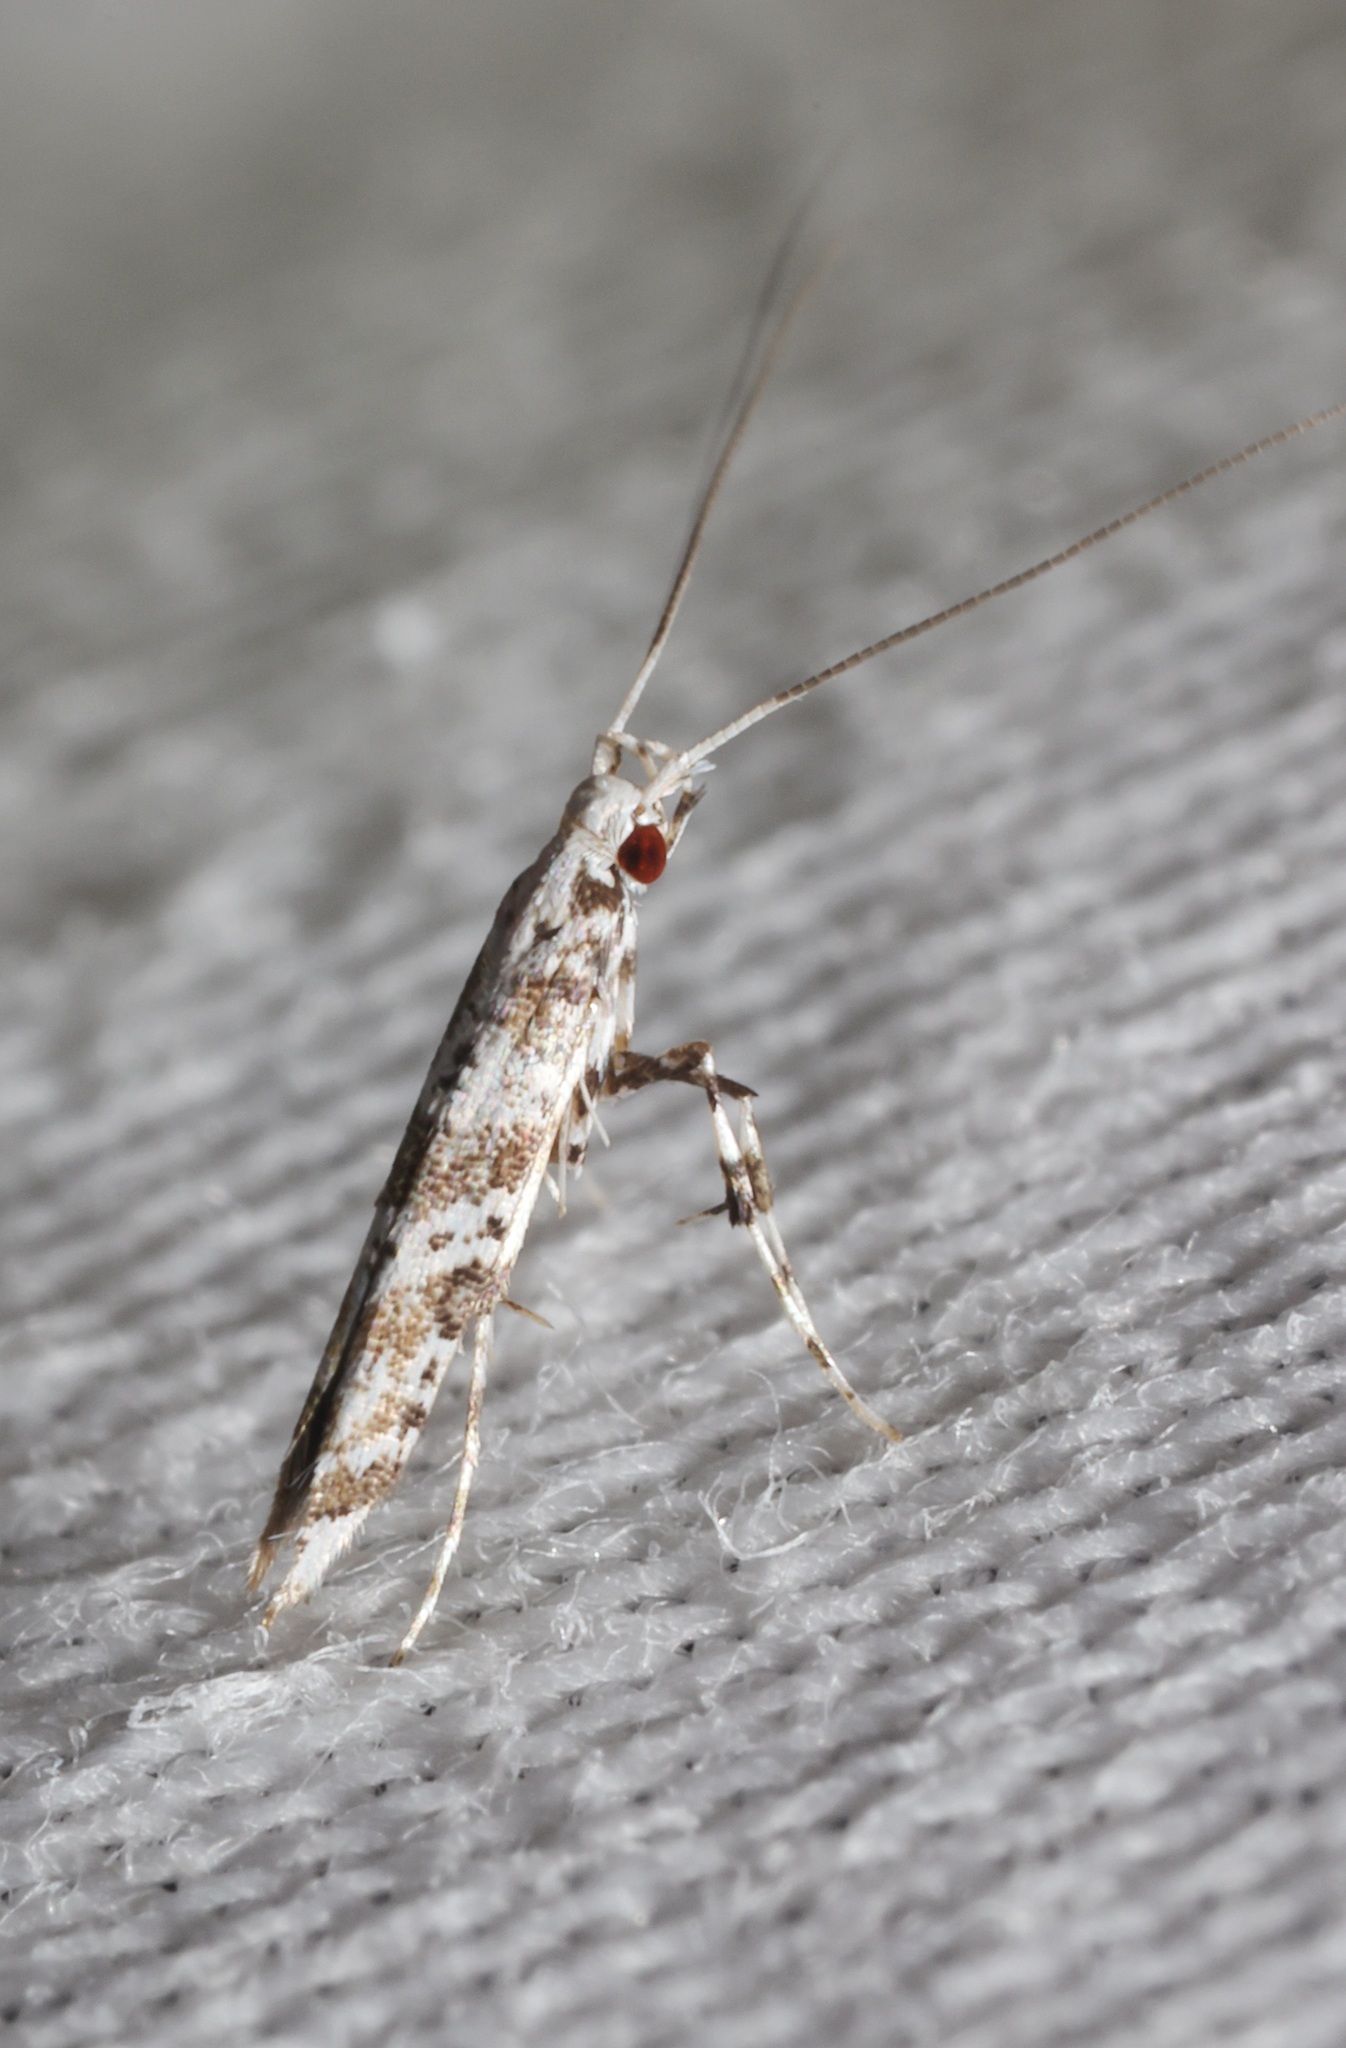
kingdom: Animalia
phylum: Arthropoda
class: Insecta
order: Lepidoptera
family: Gracillariidae
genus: Gibbovalva
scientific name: Gibbovalva quadrifasciata
